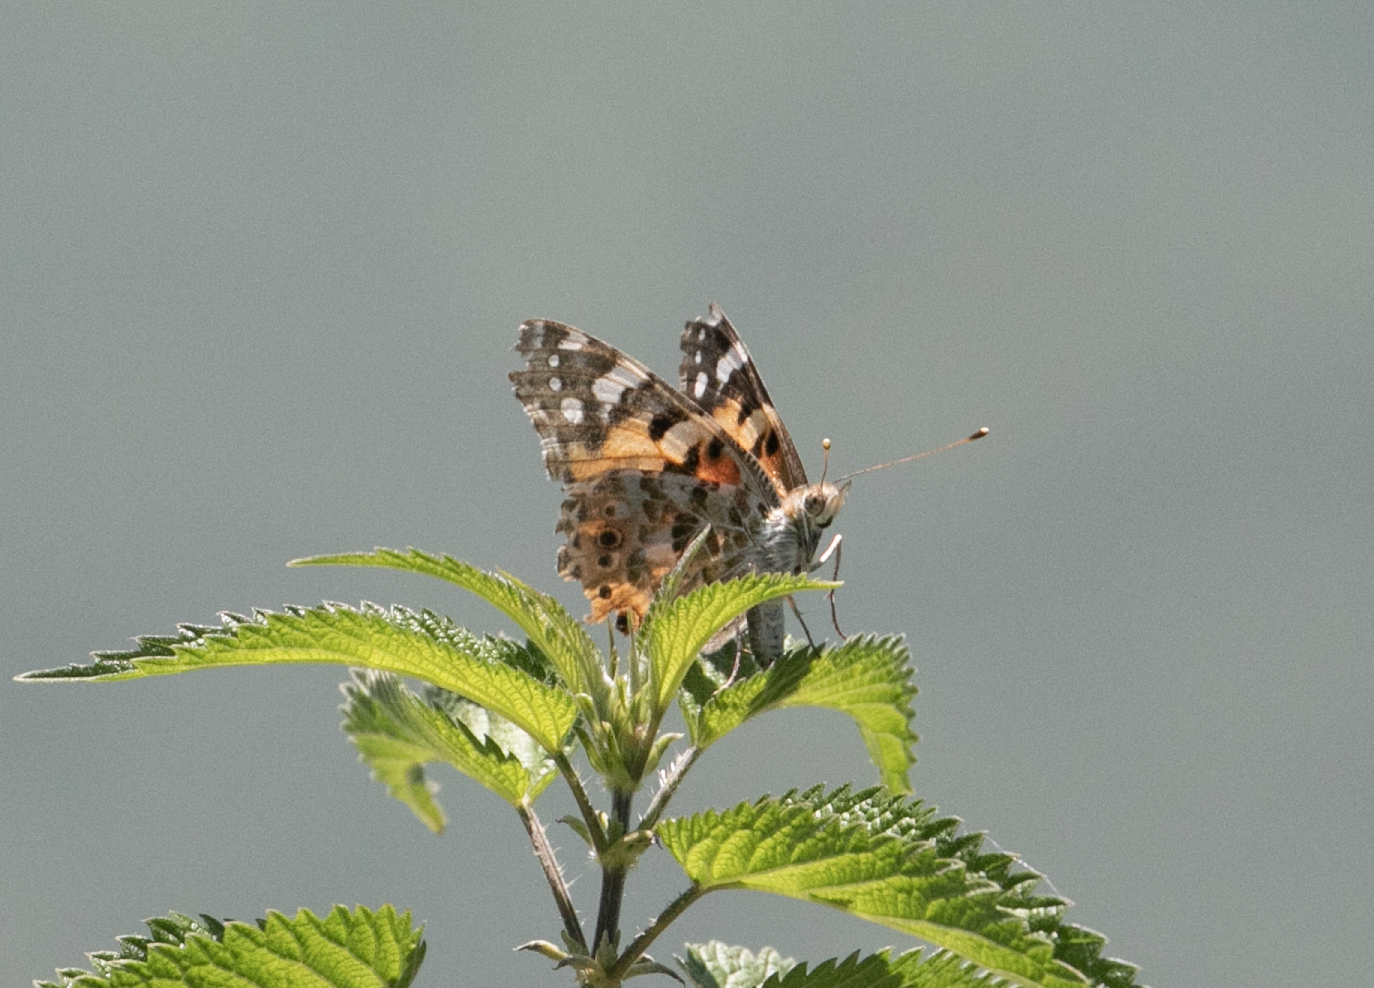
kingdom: Animalia
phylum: Arthropoda
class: Insecta
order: Lepidoptera
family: Nymphalidae
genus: Vanessa
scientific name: Vanessa cardui
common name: Painted lady
